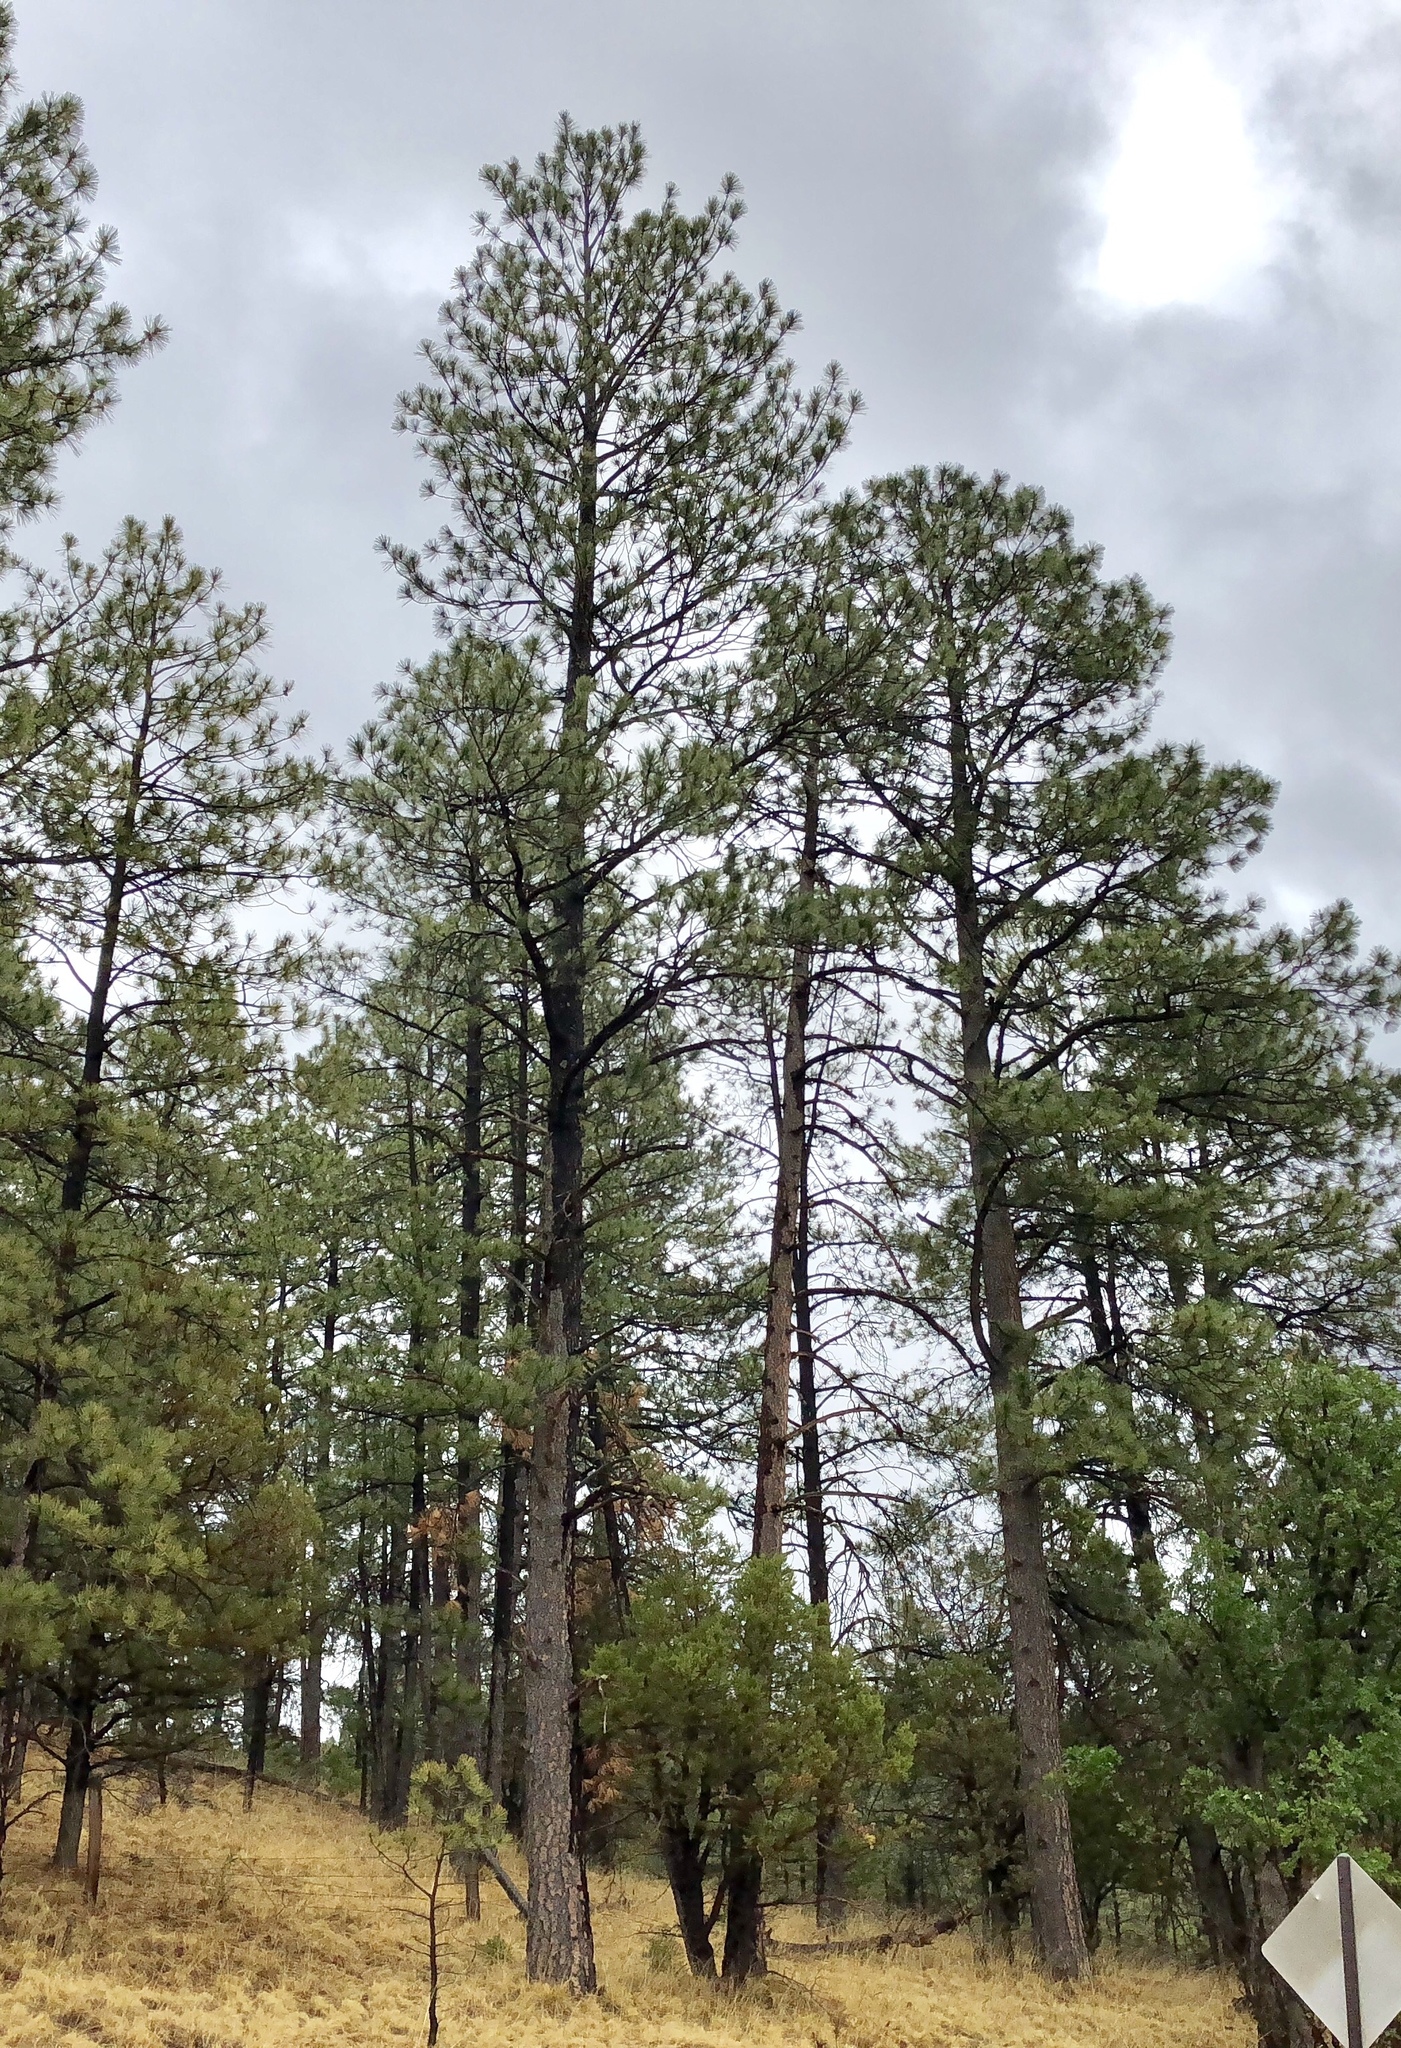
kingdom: Plantae
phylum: Tracheophyta
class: Pinopsida
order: Pinales
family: Pinaceae
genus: Pinus
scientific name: Pinus ponderosa
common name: Western yellow-pine
